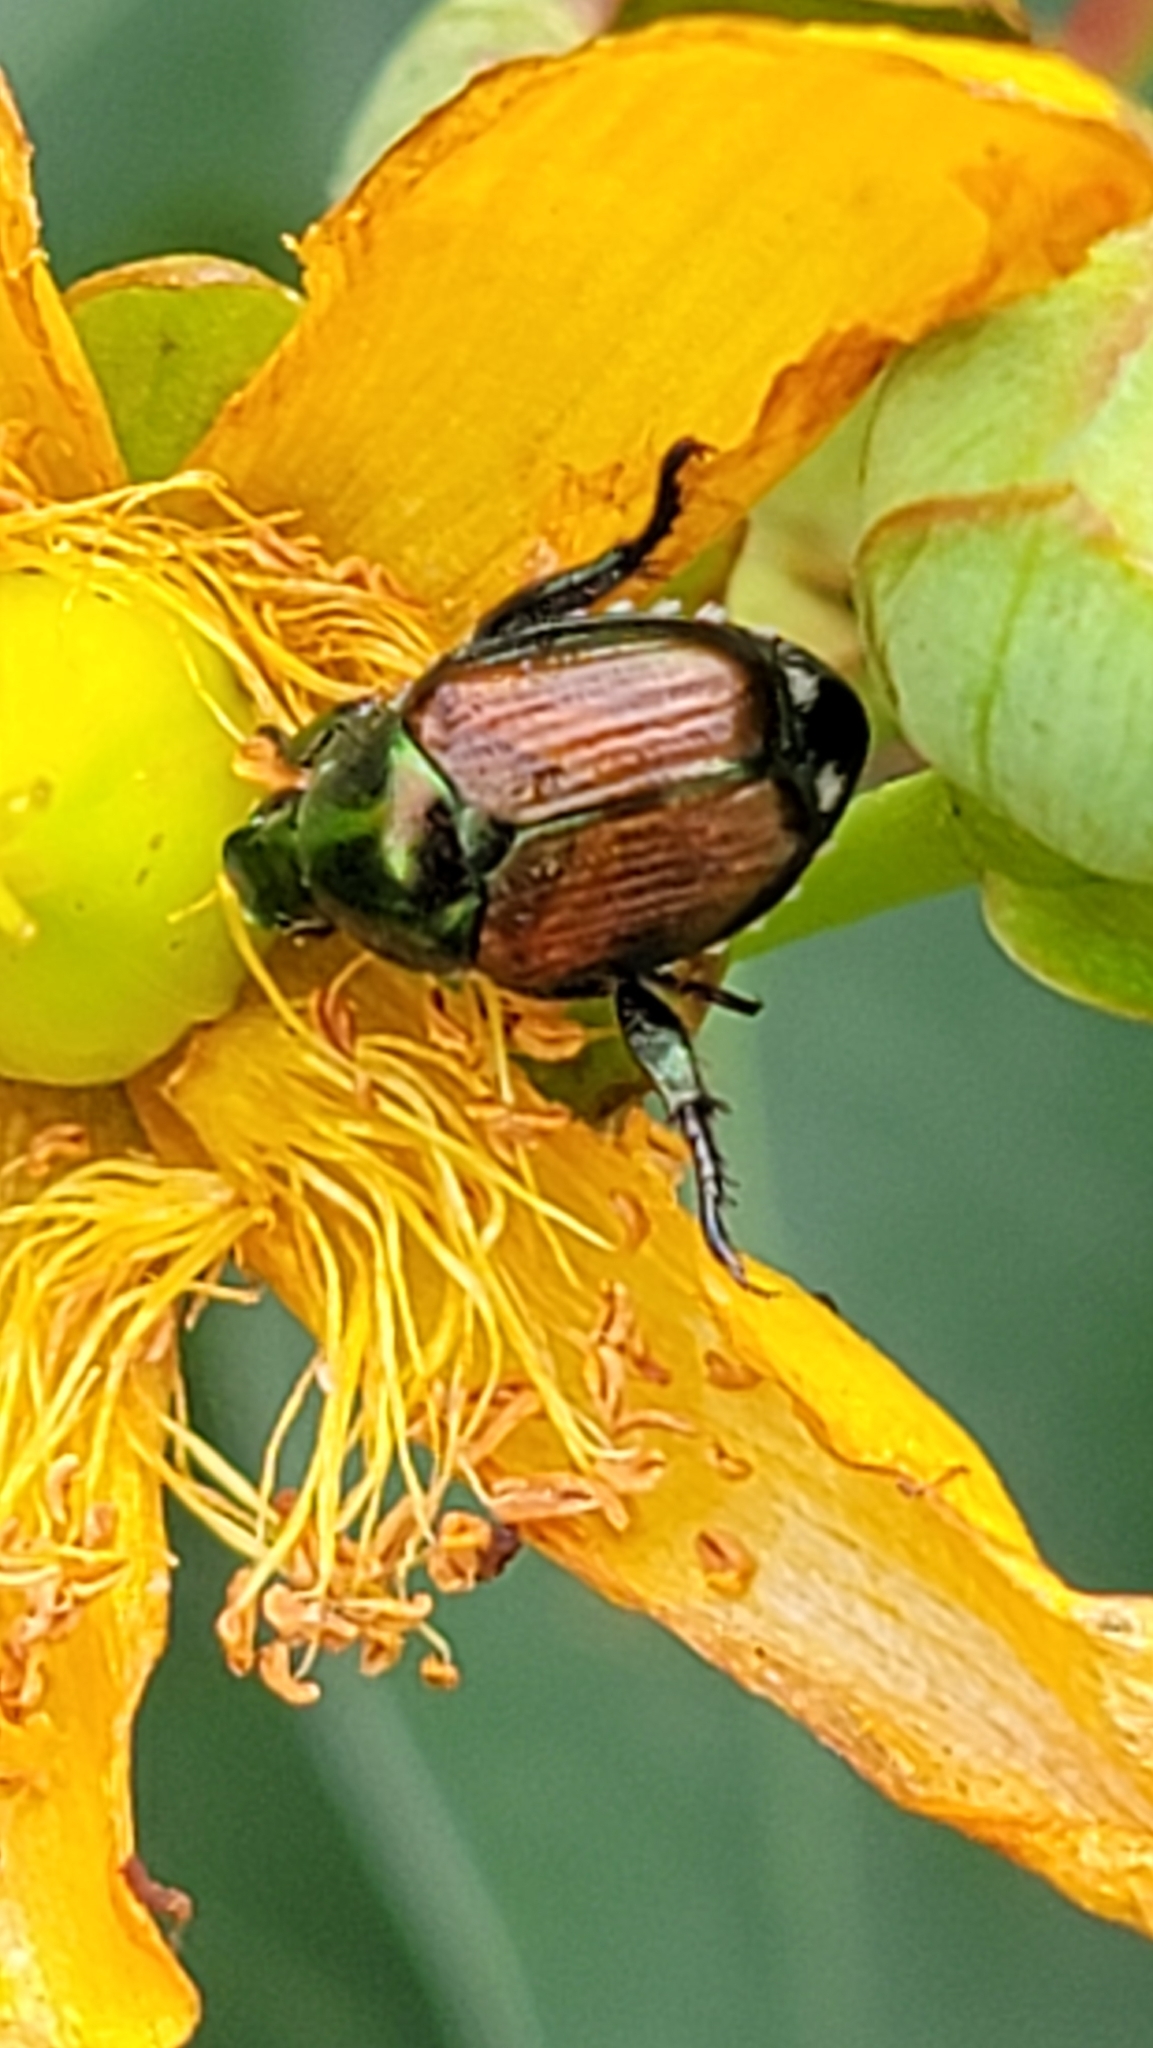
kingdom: Animalia
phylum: Arthropoda
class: Insecta
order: Coleoptera
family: Scarabaeidae
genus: Popillia
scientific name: Popillia japonica
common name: Japanese beetle
